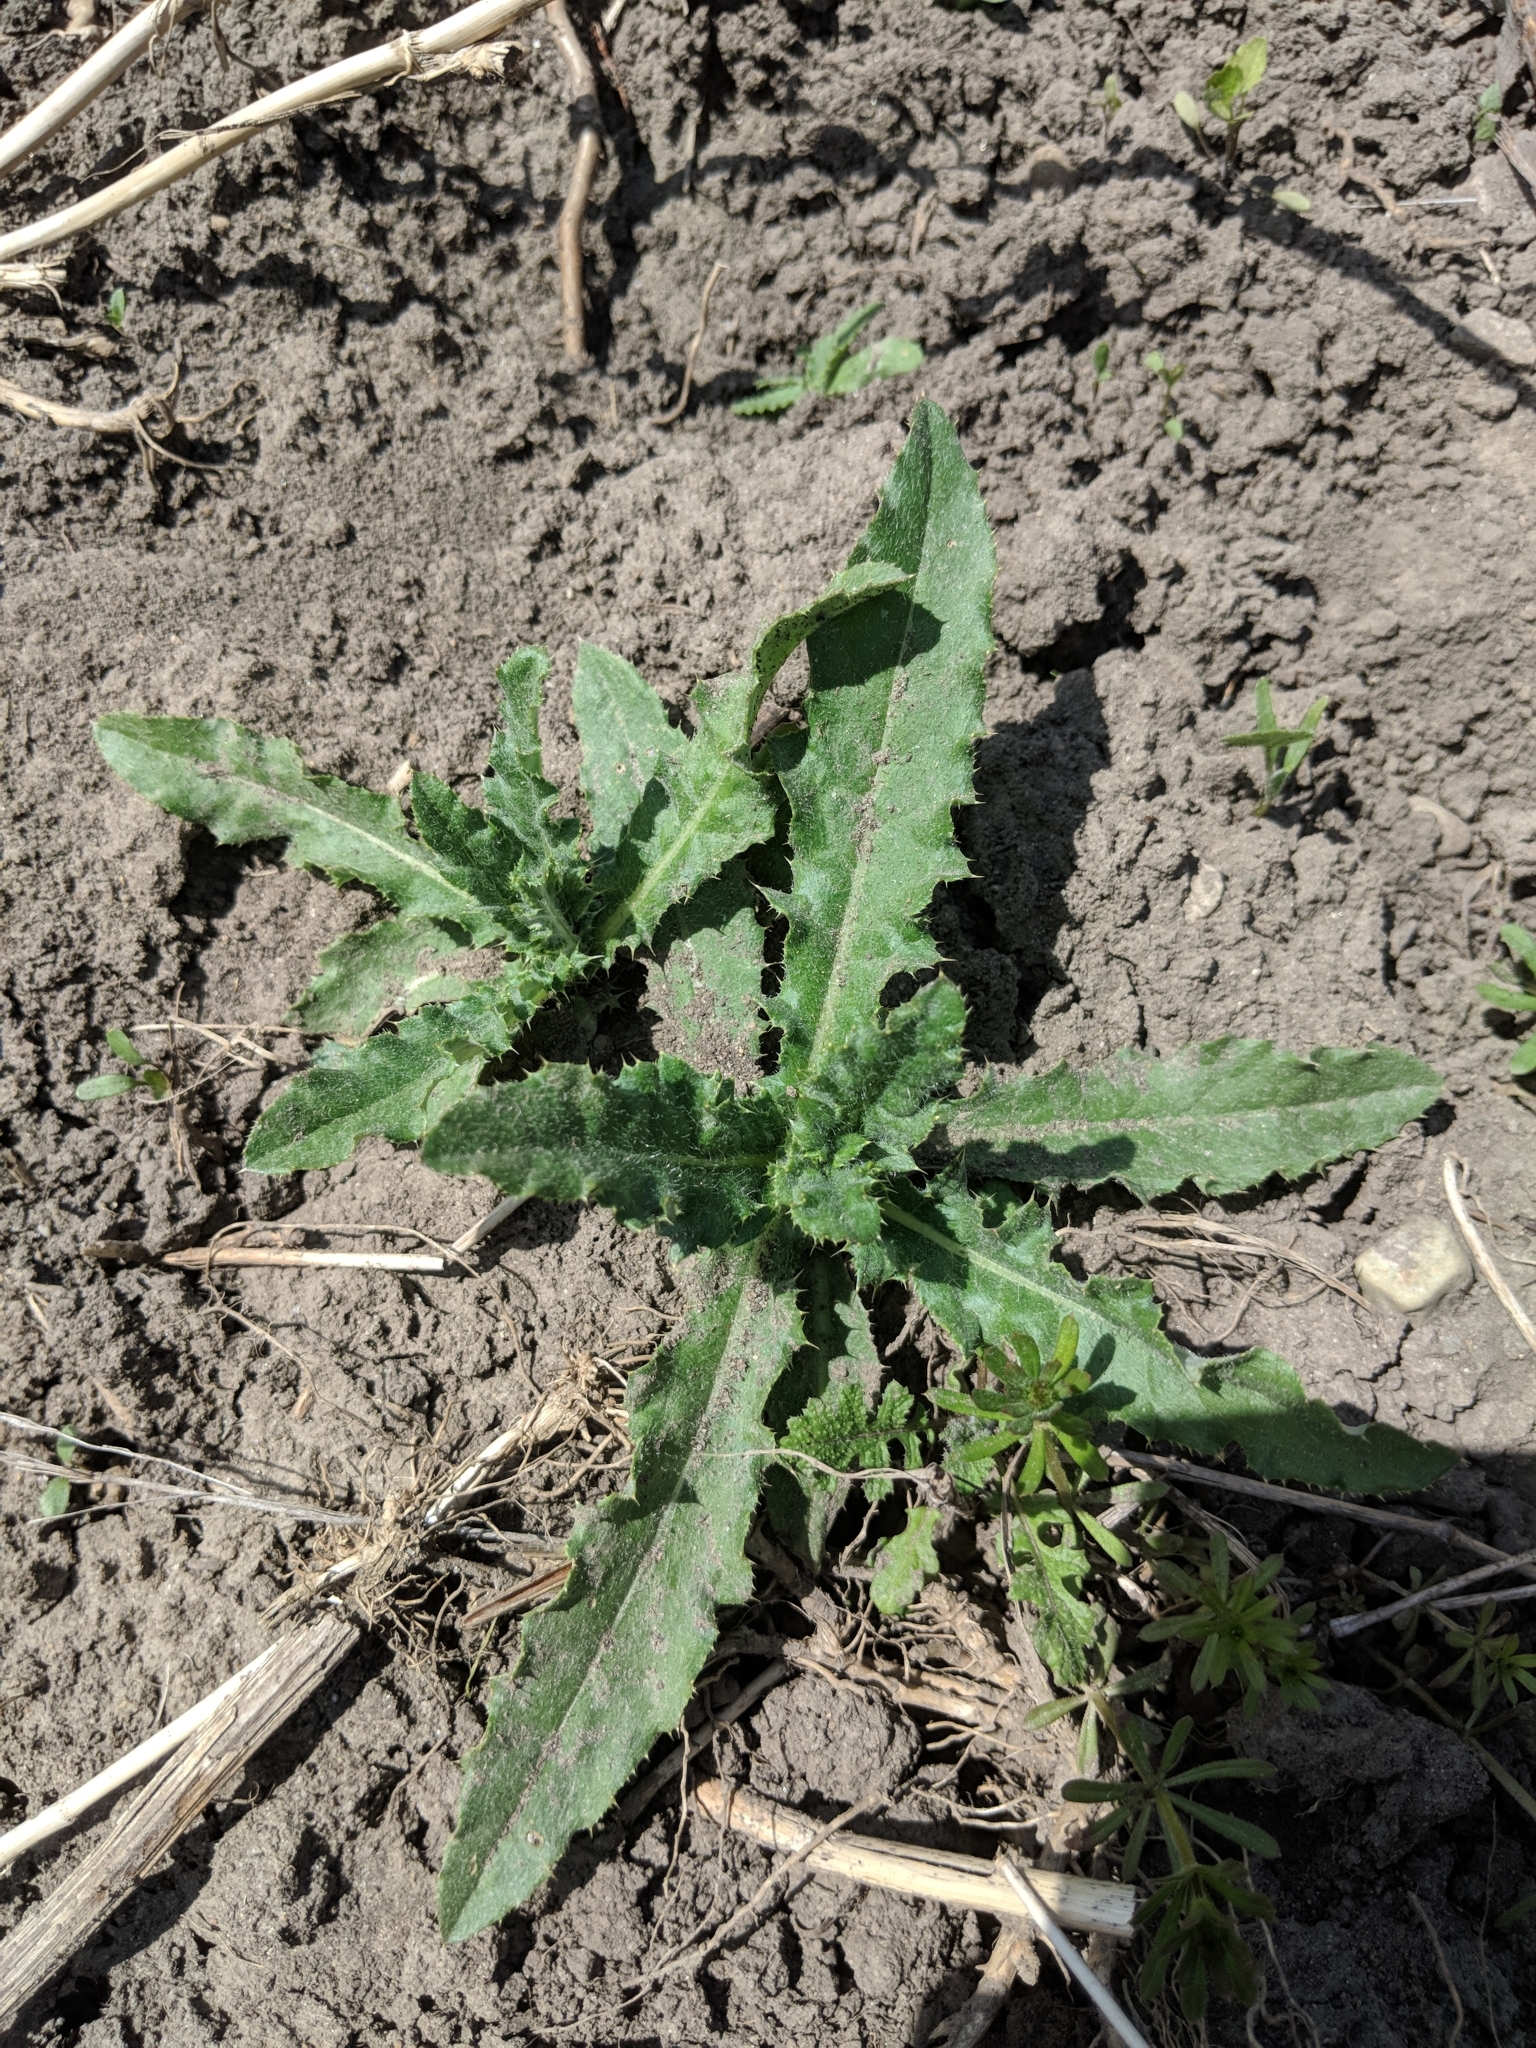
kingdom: Plantae
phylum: Tracheophyta
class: Magnoliopsida
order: Asterales
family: Asteraceae
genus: Cirsium
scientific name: Cirsium arvense
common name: Creeping thistle
